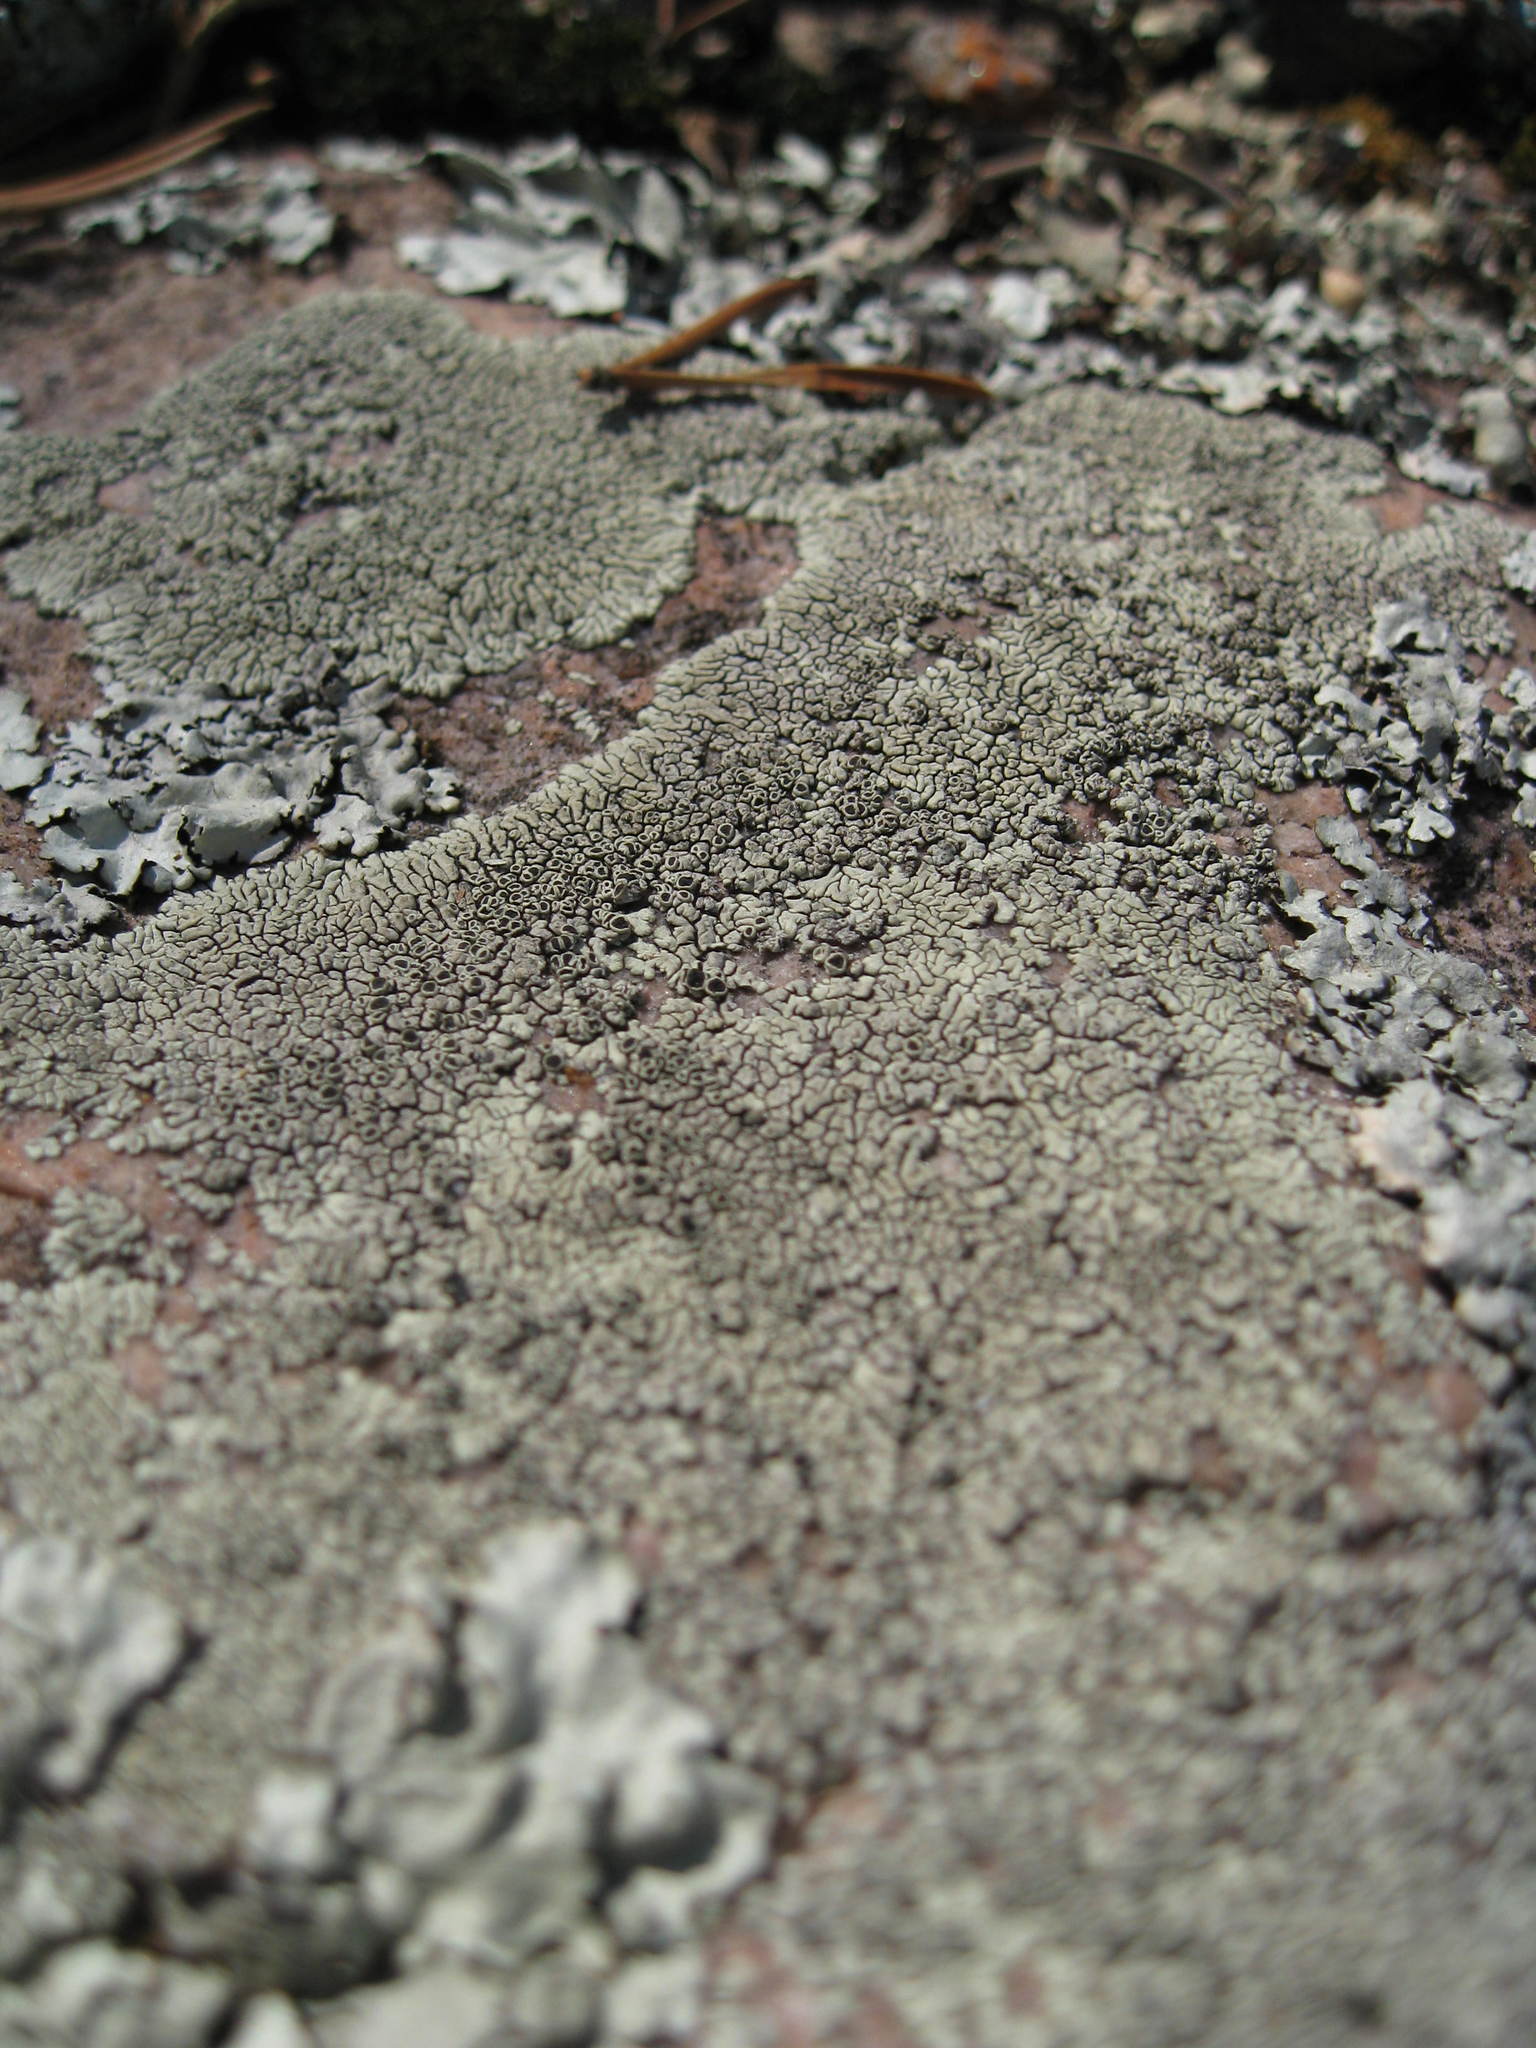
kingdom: Fungi
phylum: Ascomycota
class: Lecanoromycetes
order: Caliciales
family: Caliciaceae
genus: Dimelaena
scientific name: Dimelaena oreina
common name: Golden moonglow lichen
